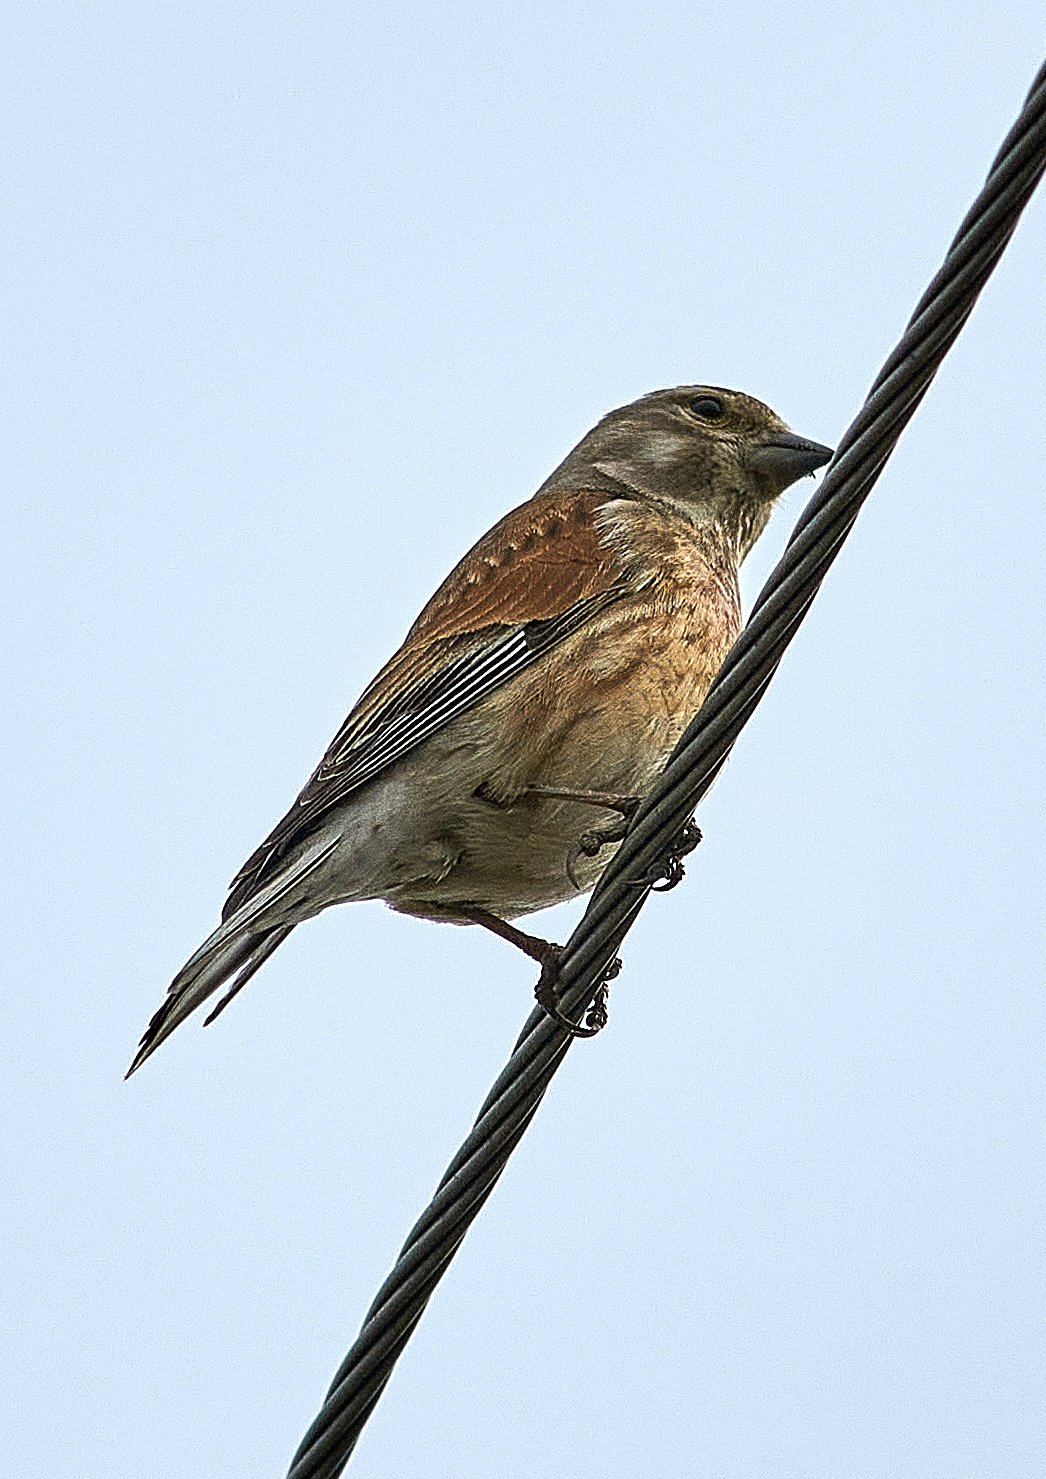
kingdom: Animalia
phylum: Chordata
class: Aves
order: Passeriformes
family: Fringillidae
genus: Linaria
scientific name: Linaria cannabina
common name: Common linnet
